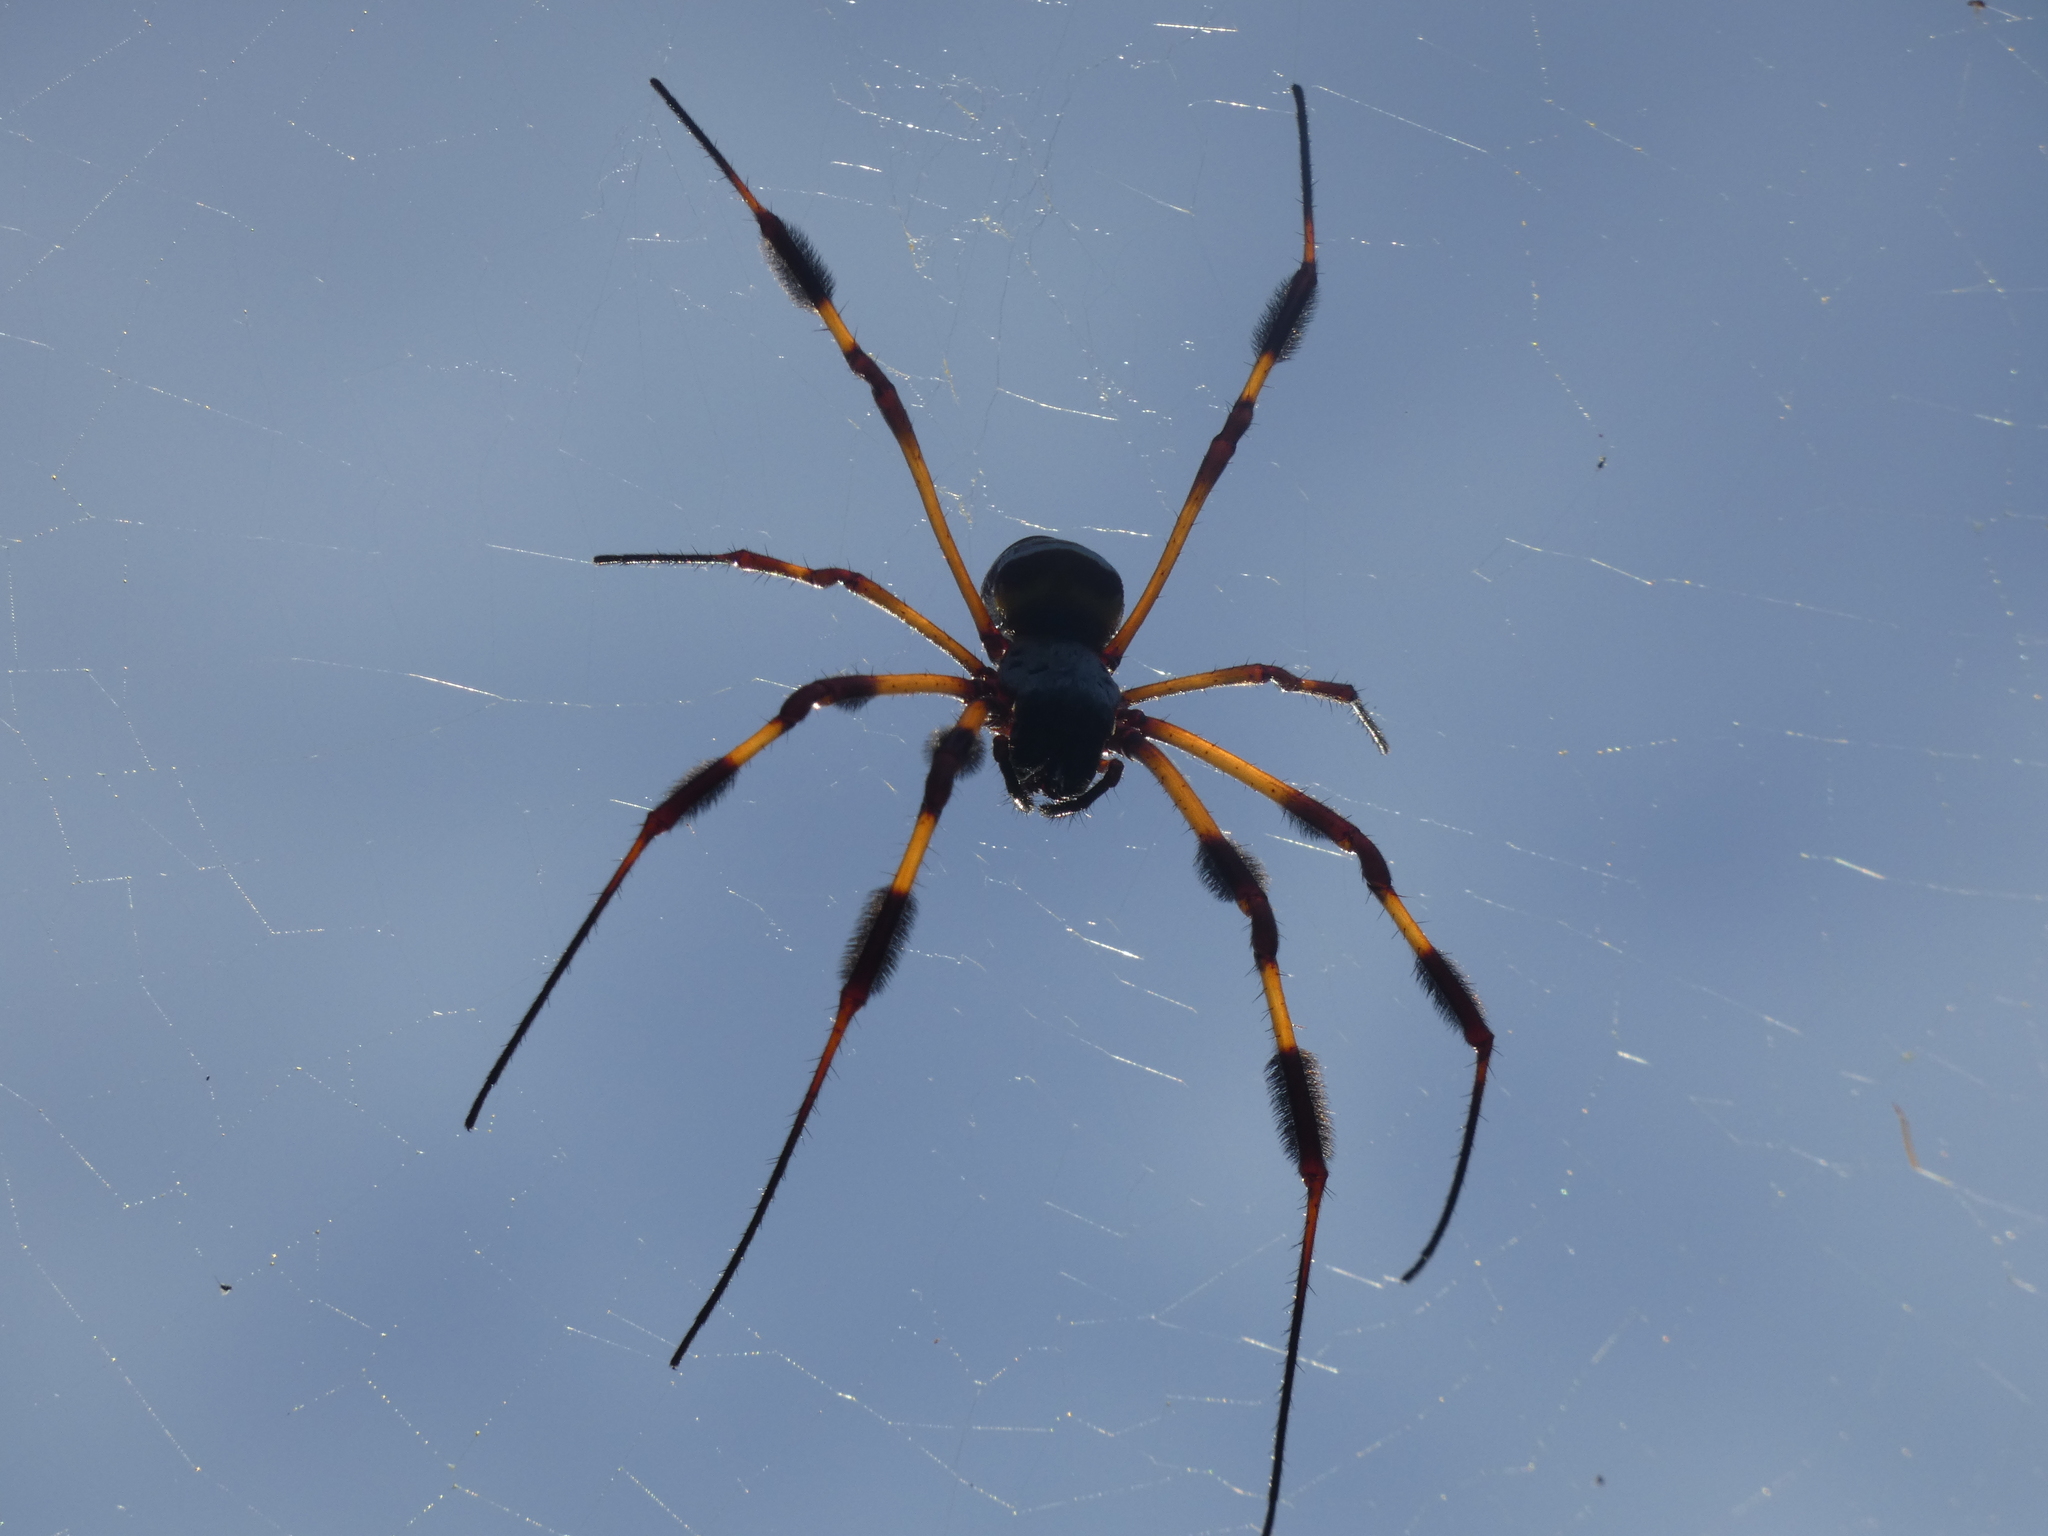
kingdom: Animalia
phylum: Arthropoda
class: Arachnida
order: Araneae
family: Araneidae
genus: Trichonephila
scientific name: Trichonephila clavipes
